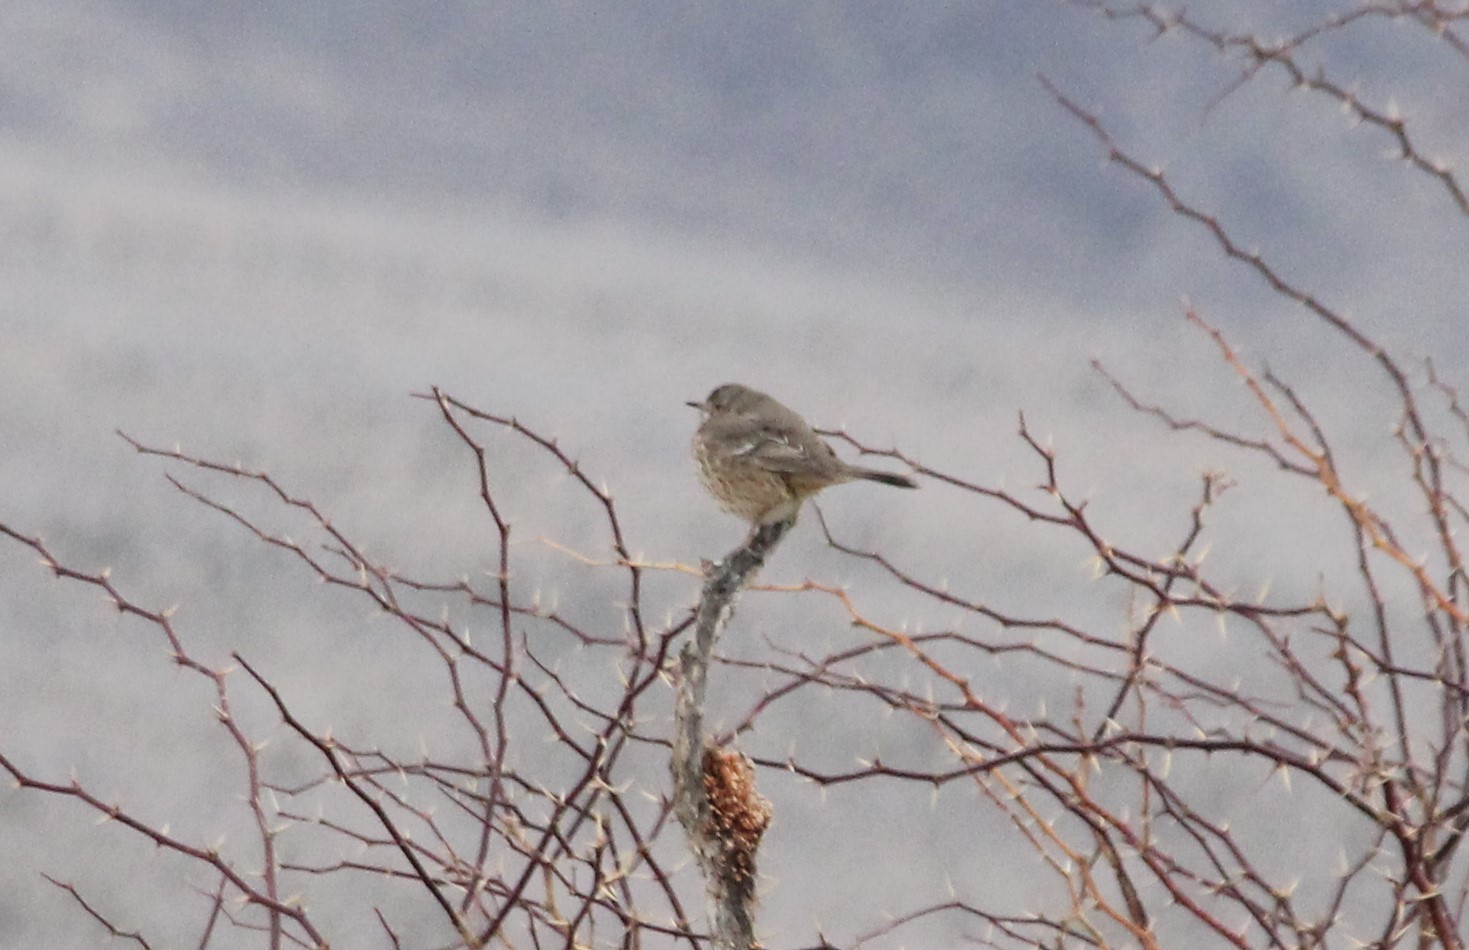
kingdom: Animalia
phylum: Chordata
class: Aves
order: Passeriformes
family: Mimidae
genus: Oreoscoptes
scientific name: Oreoscoptes montanus
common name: Sage thrasher
